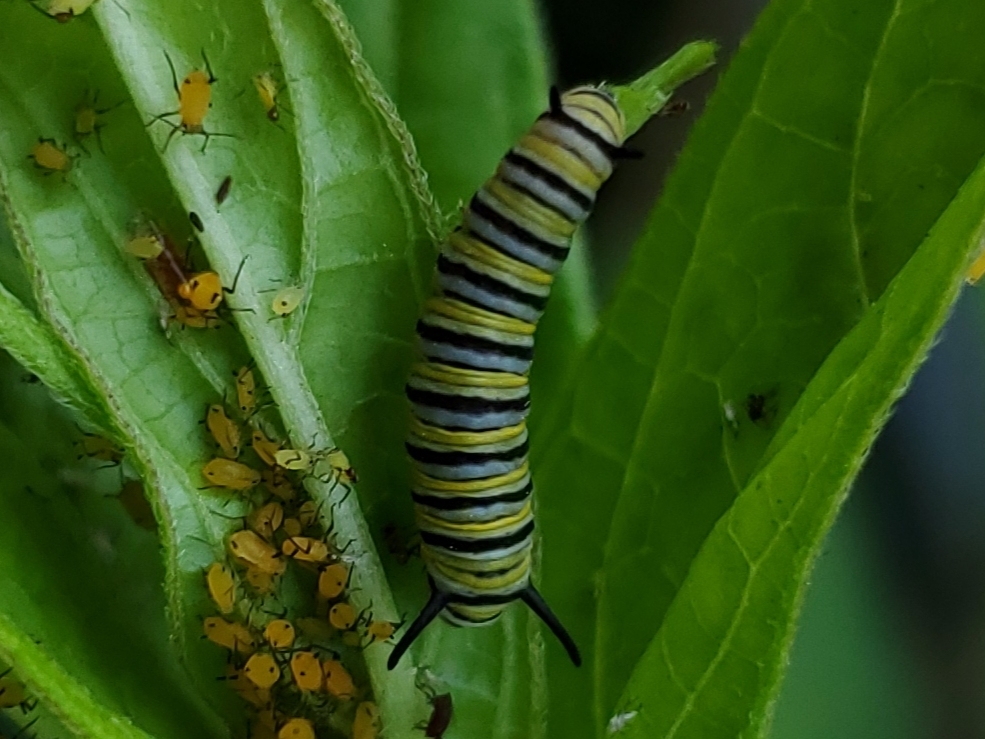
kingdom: Animalia
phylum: Arthropoda
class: Insecta
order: Lepidoptera
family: Nymphalidae
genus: Danaus
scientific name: Danaus plexippus
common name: Monarch
